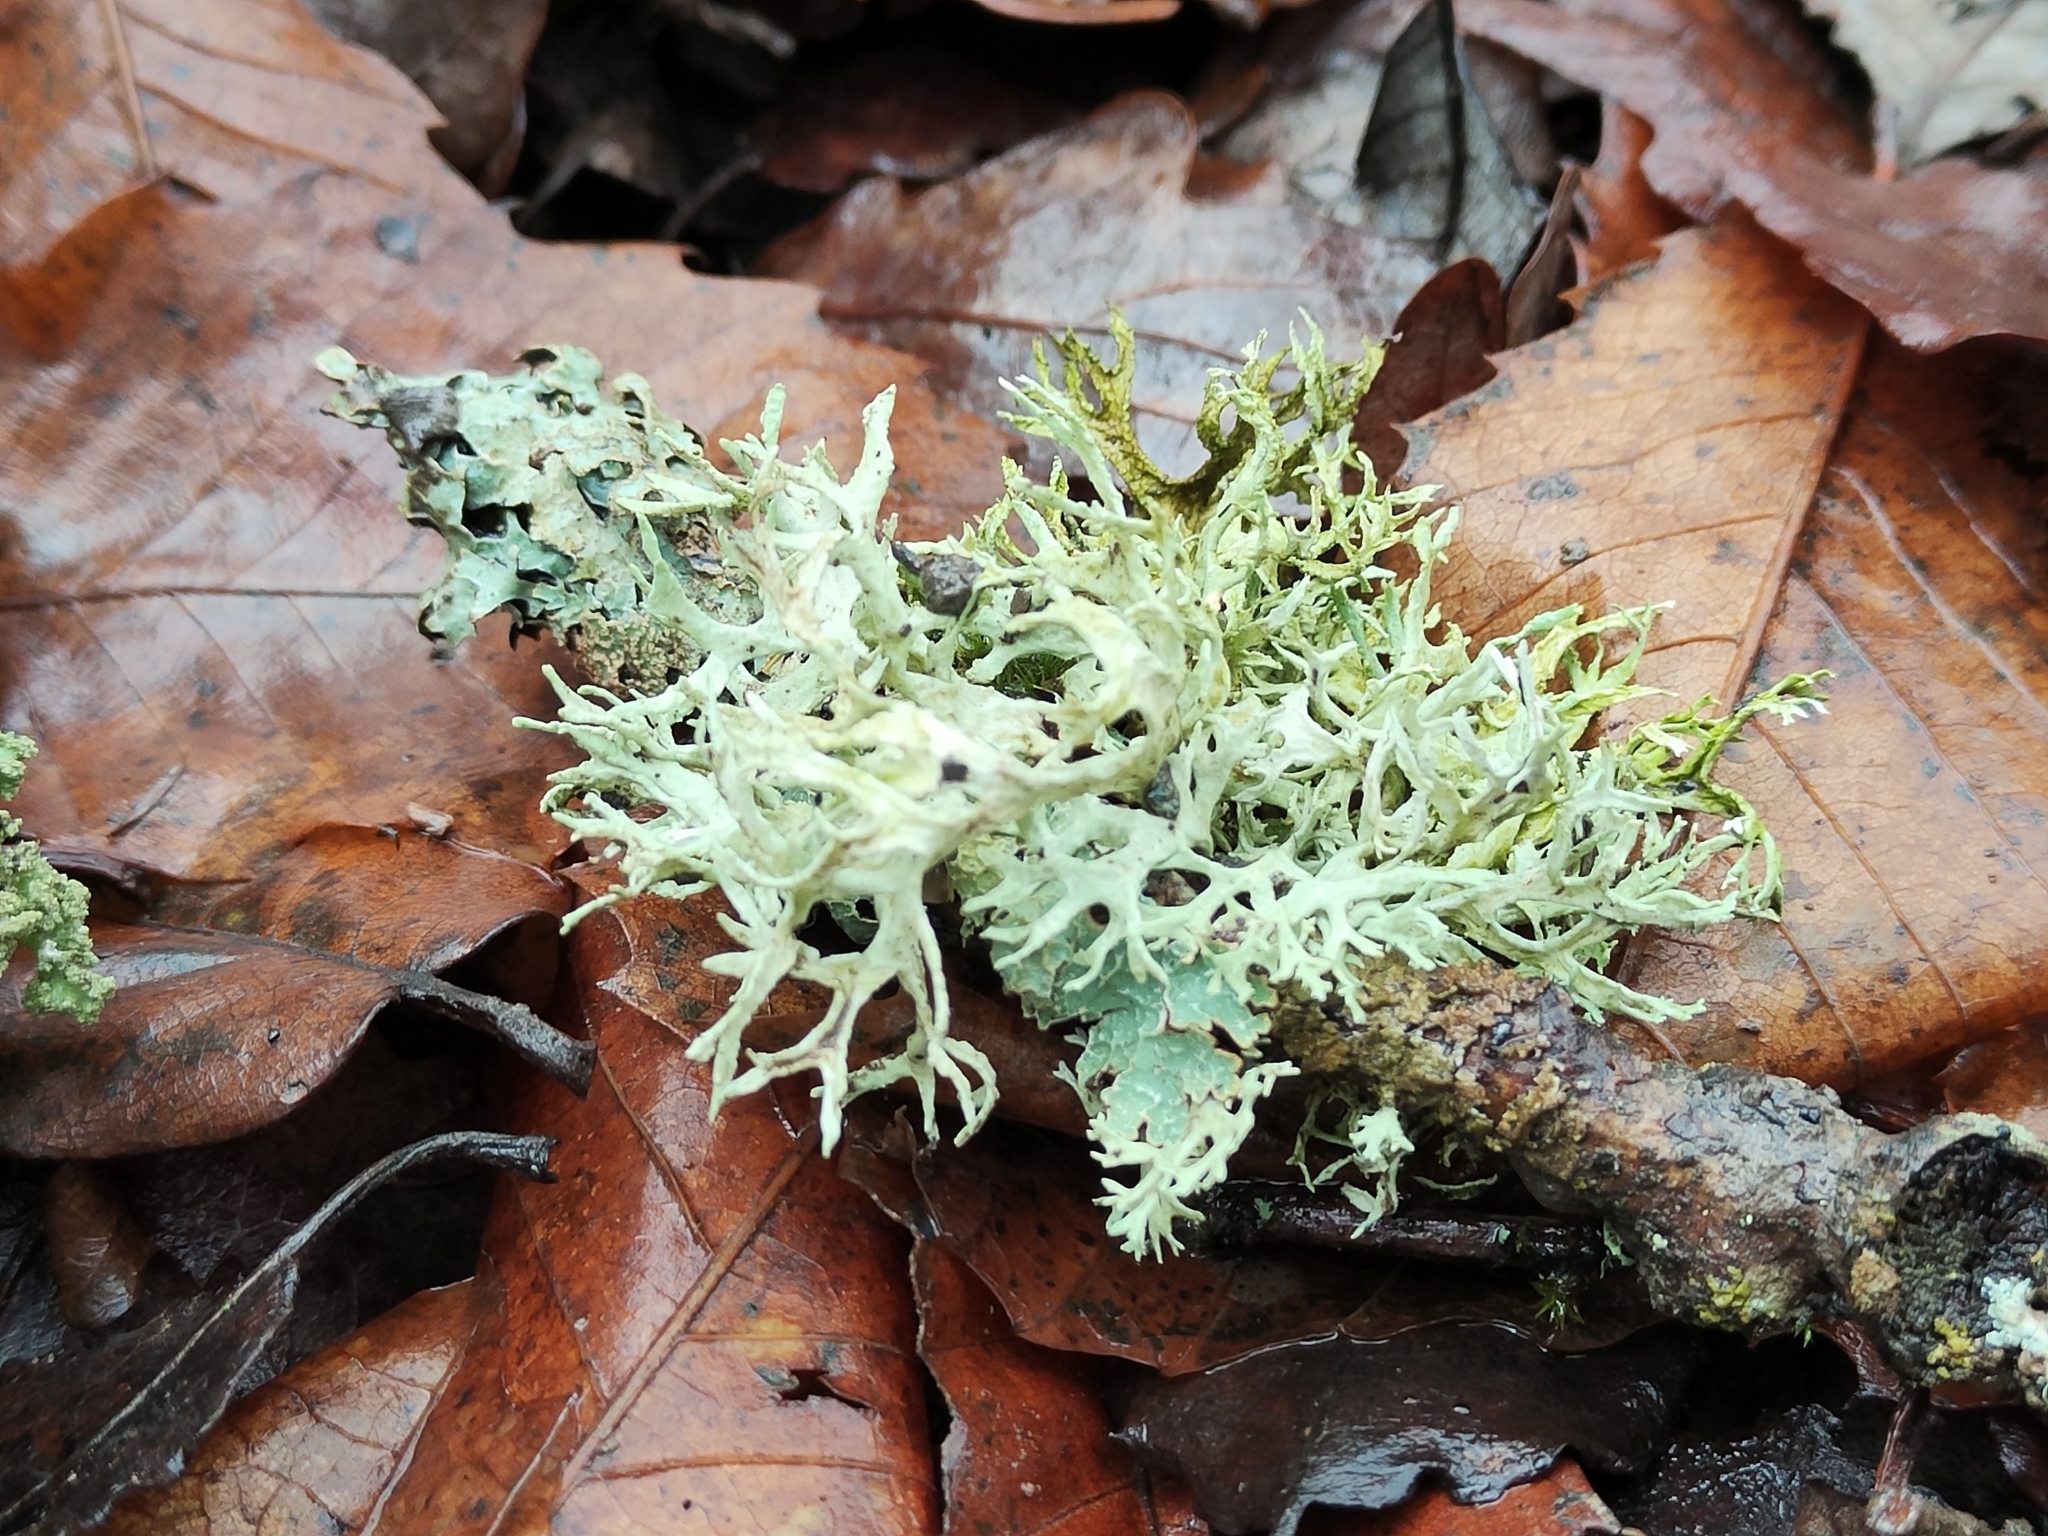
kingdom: Fungi
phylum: Ascomycota
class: Lecanoromycetes
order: Lecanorales
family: Parmeliaceae
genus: Evernia
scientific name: Evernia prunastri
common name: Oak moss
